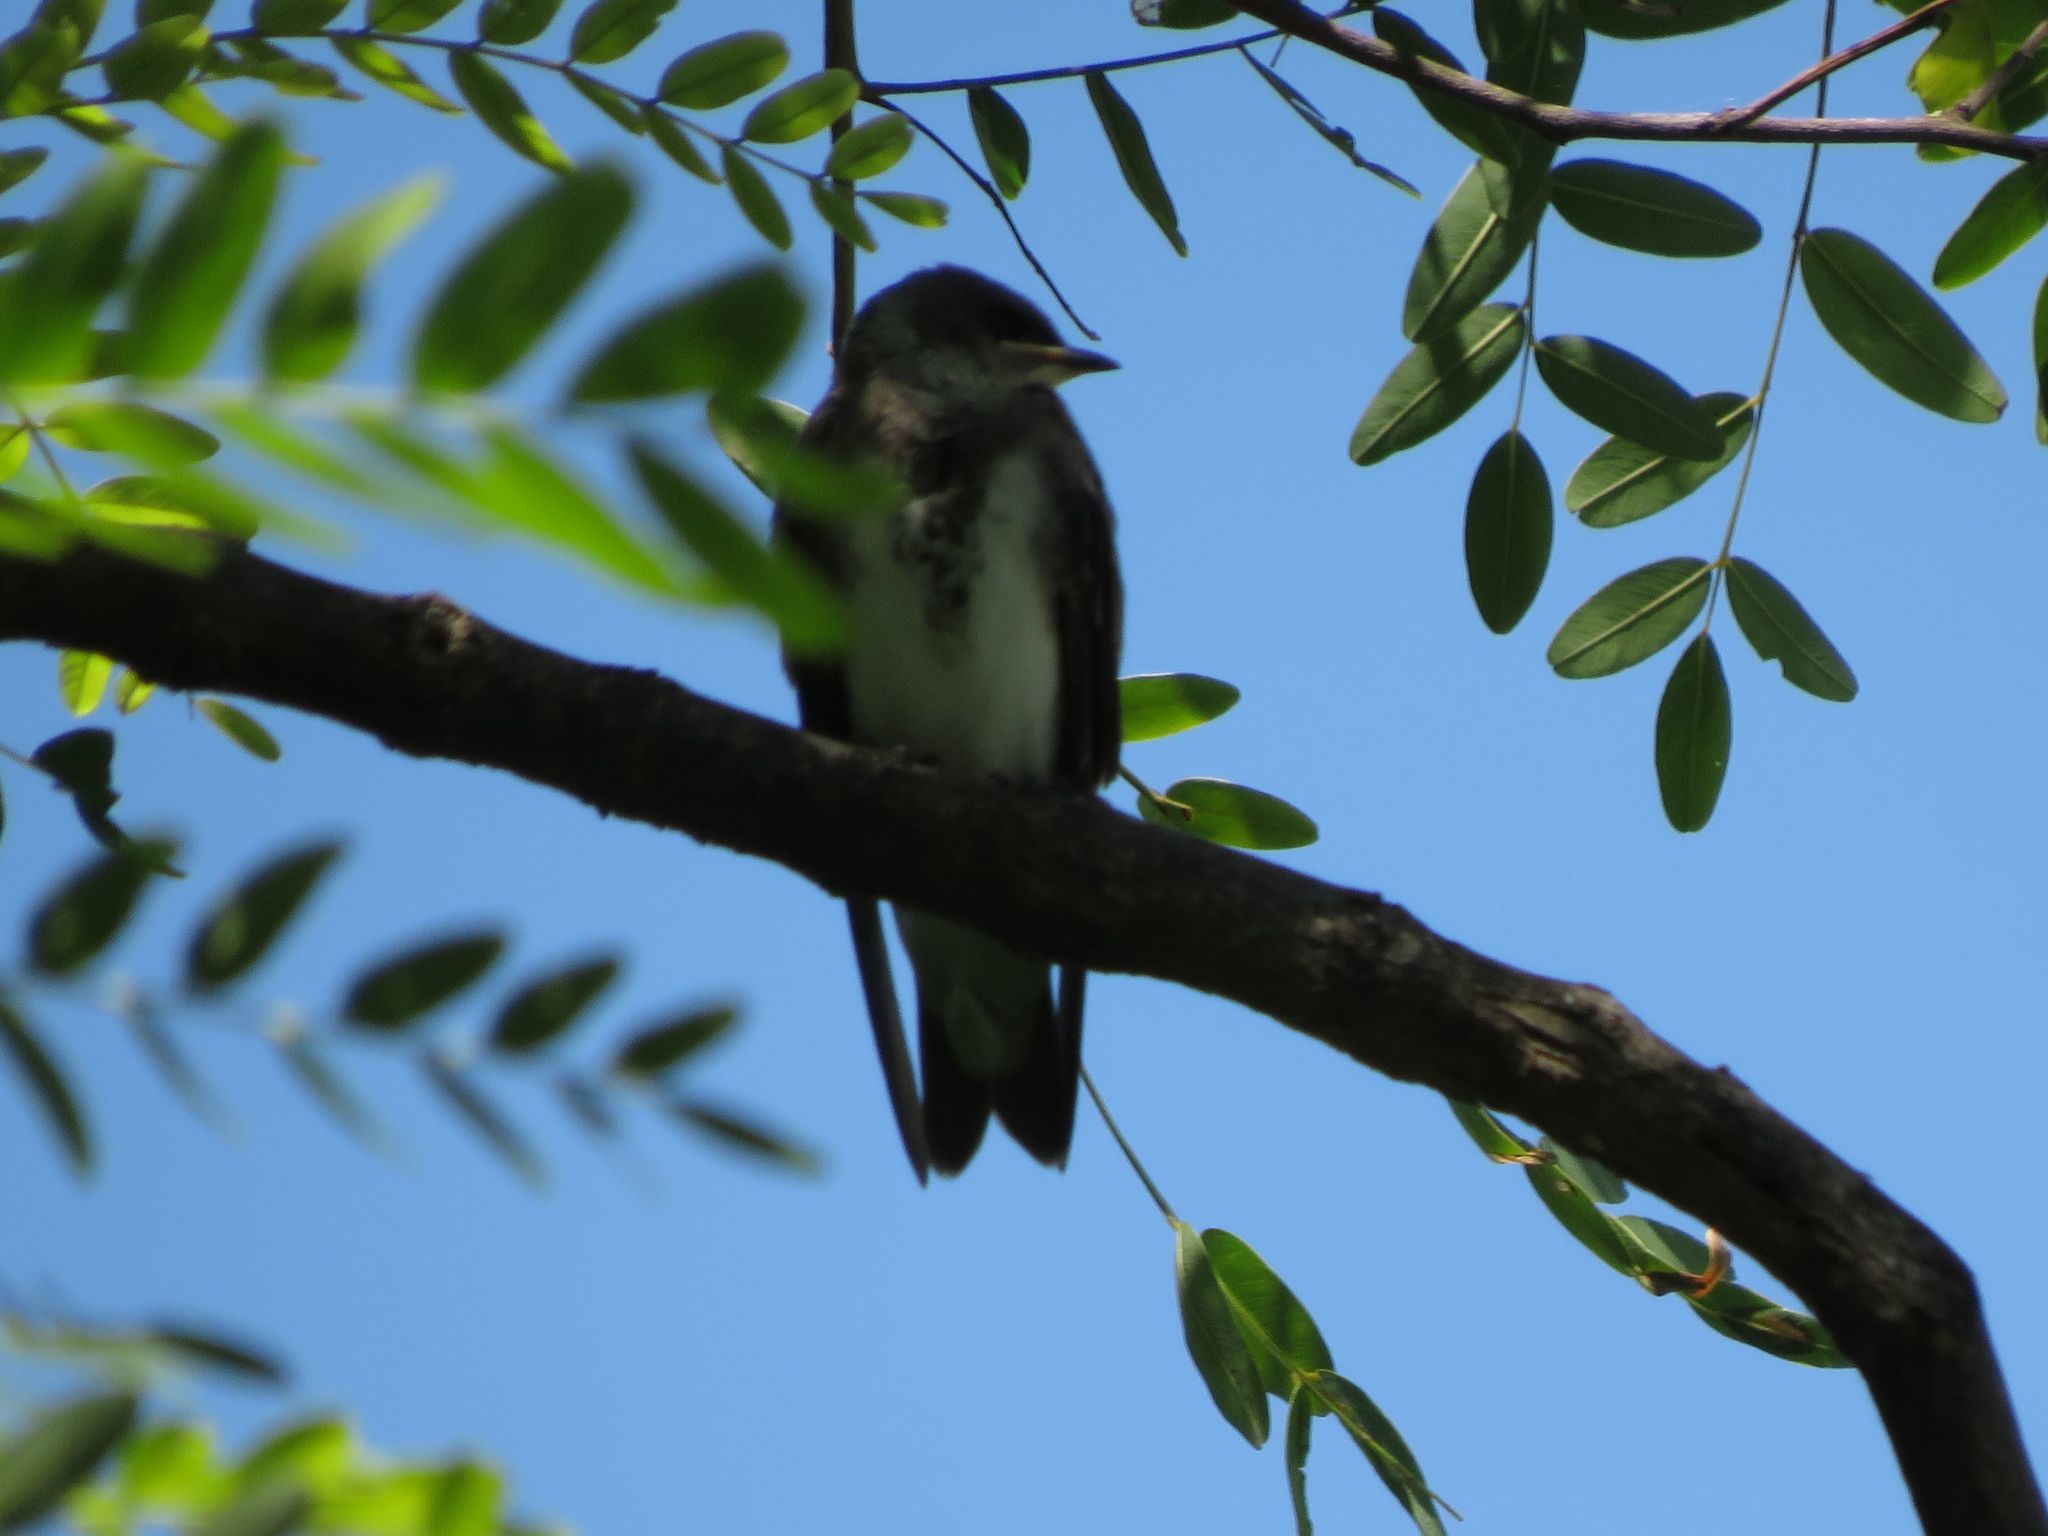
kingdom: Animalia
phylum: Chordata
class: Aves
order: Passeriformes
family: Hirundinidae
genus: Progne
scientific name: Progne tapera
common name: Brown-chested martin
